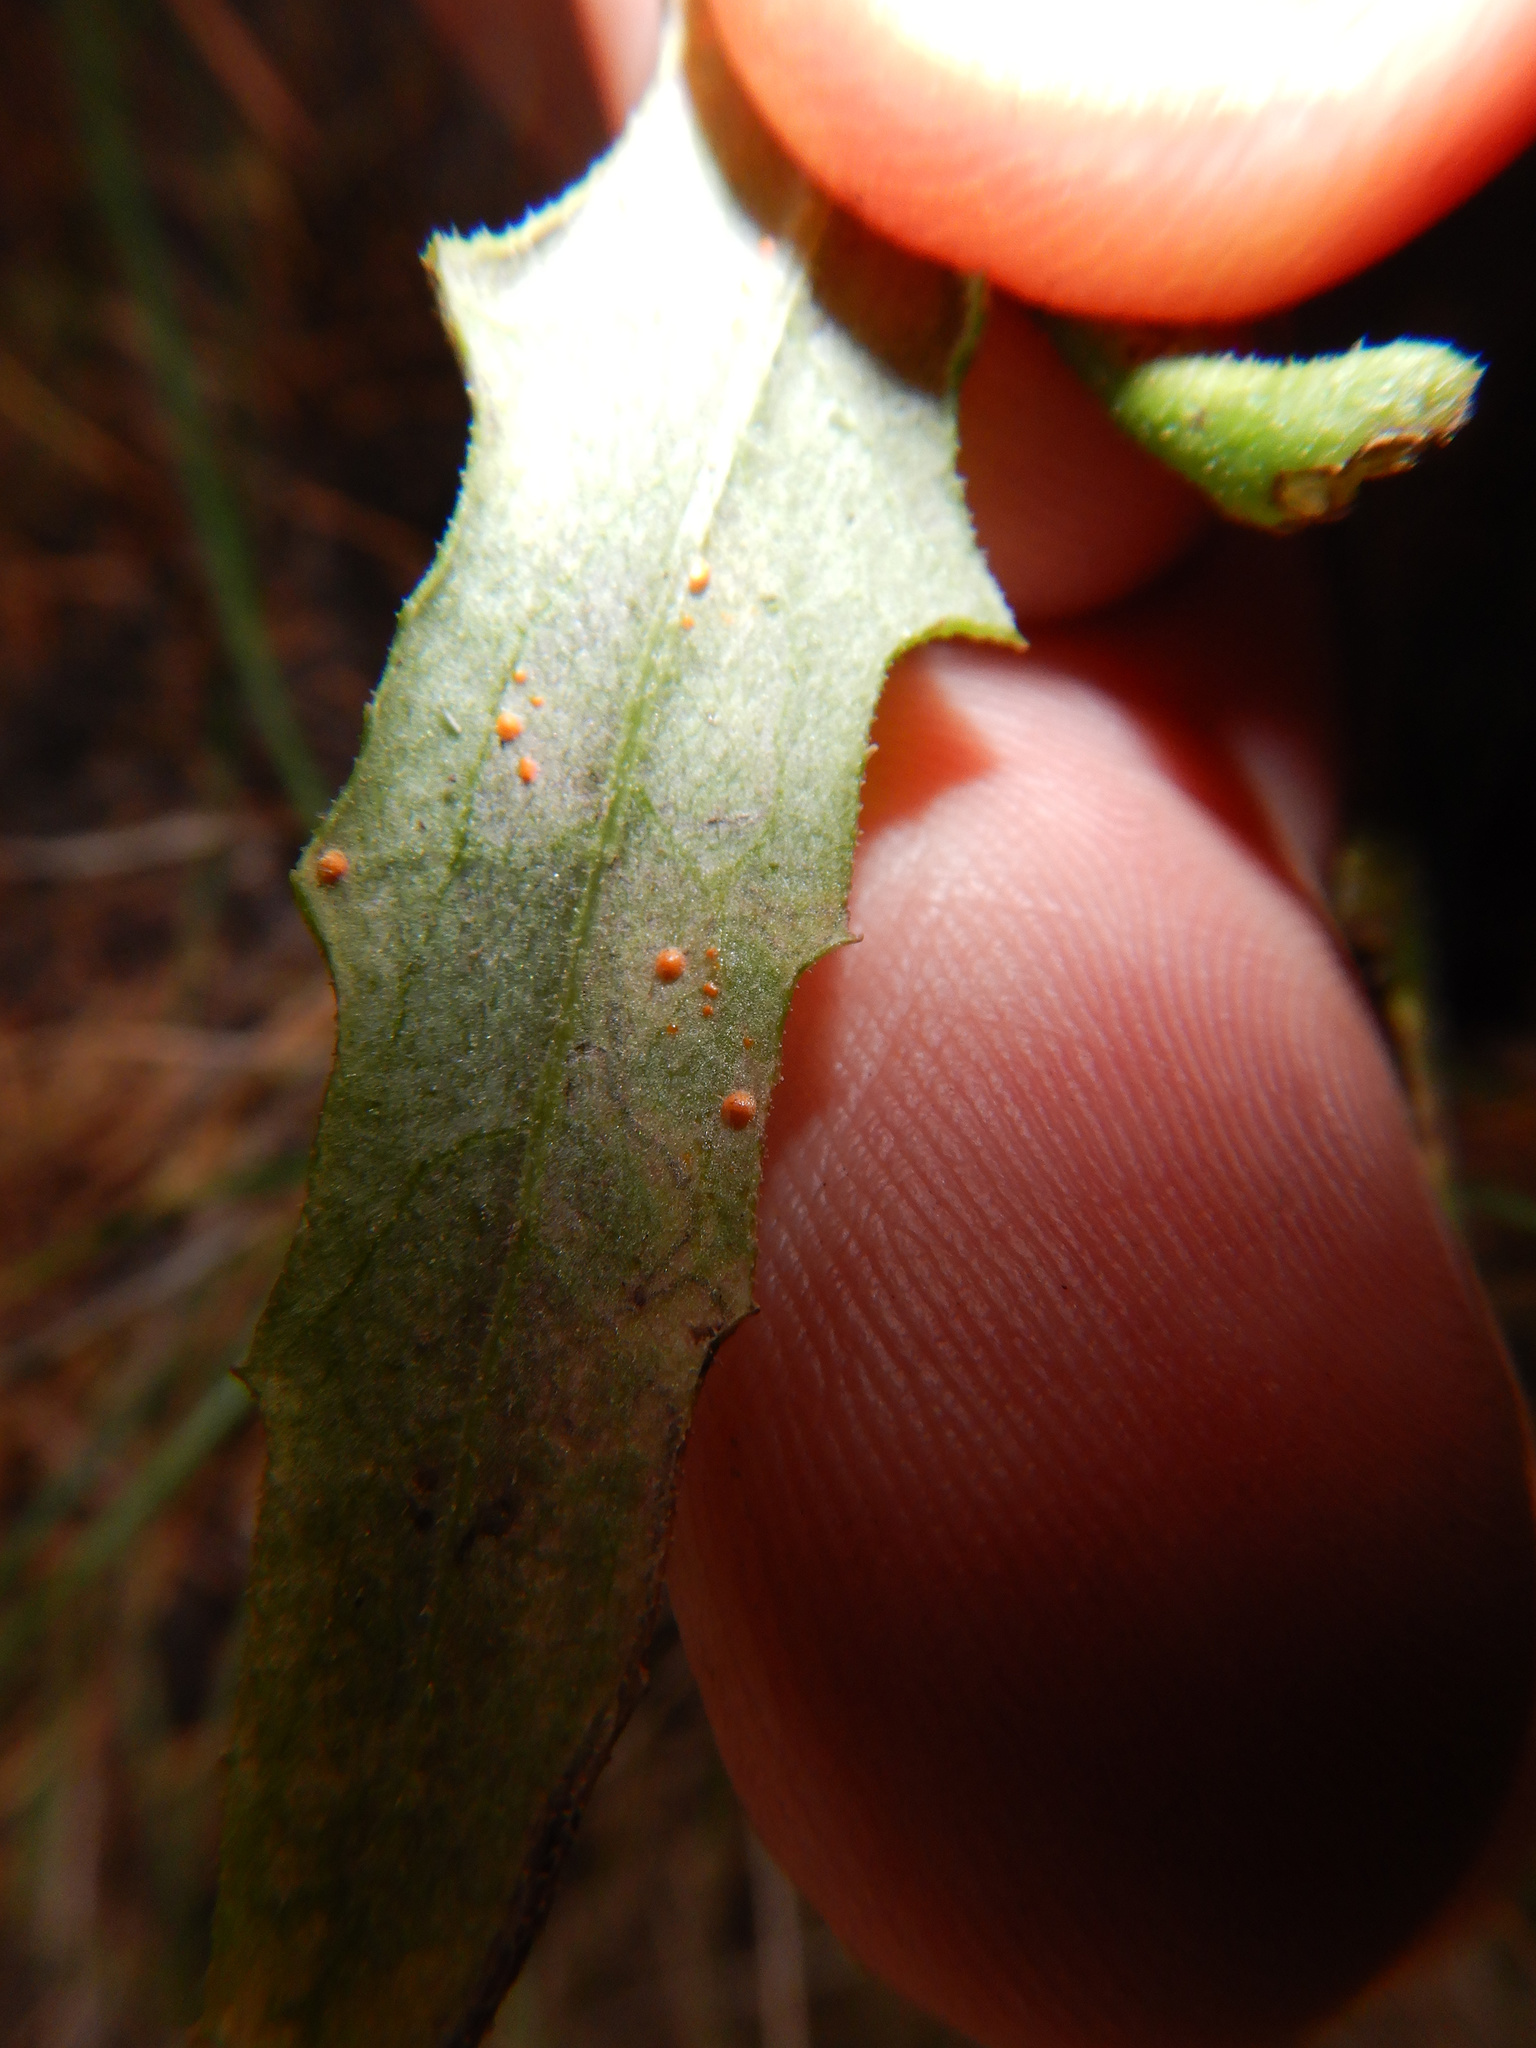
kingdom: Fungi
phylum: Basidiomycota
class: Pucciniomycetes
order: Pucciniales
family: Coleosporiaceae
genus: Coleosporium
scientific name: Coleosporium tussilaginis
